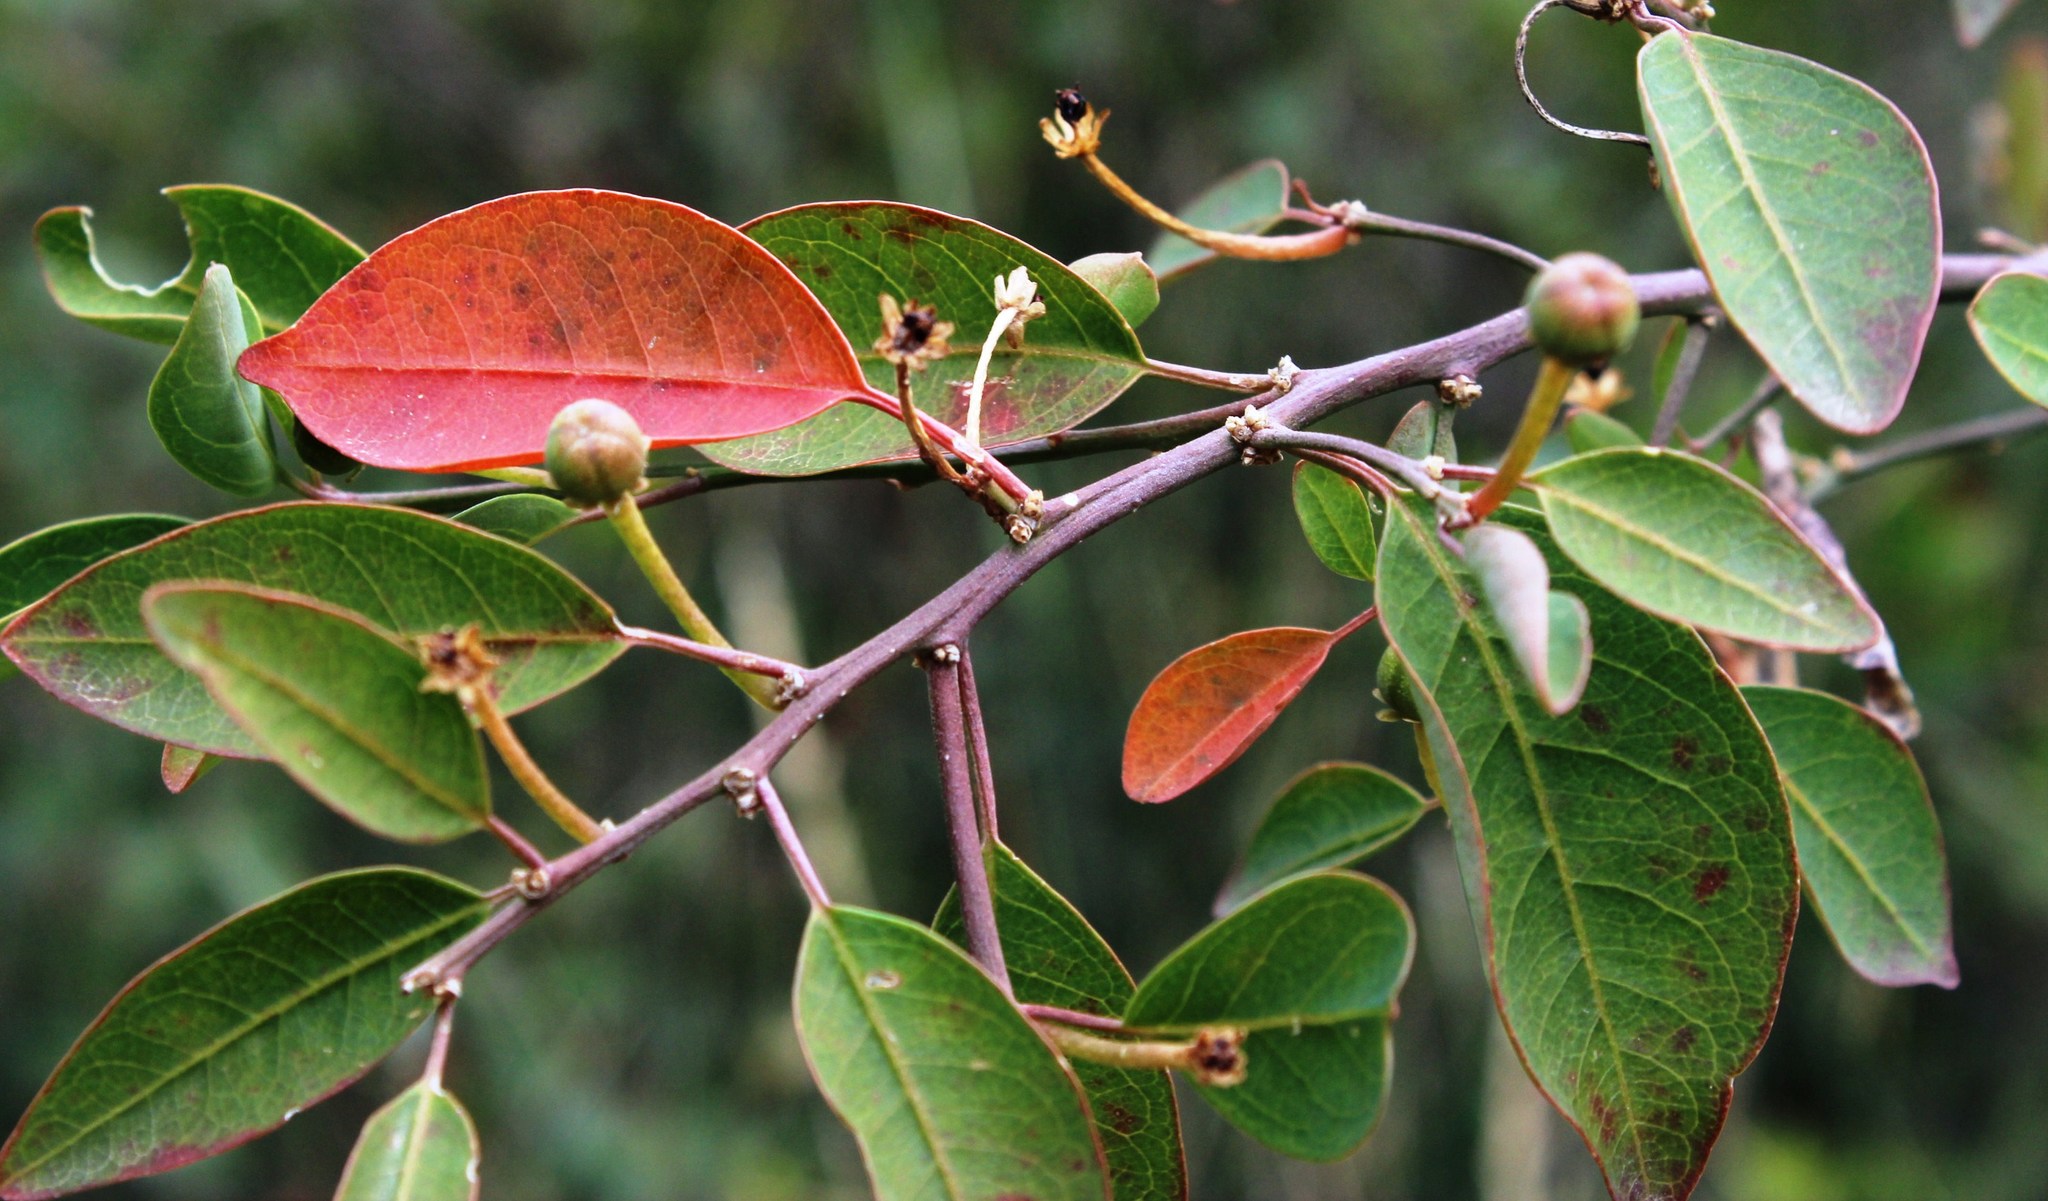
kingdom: Plantae
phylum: Tracheophyta
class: Magnoliopsida
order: Malpighiales
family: Peraceae
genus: Clutia
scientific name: Clutia pulchella
